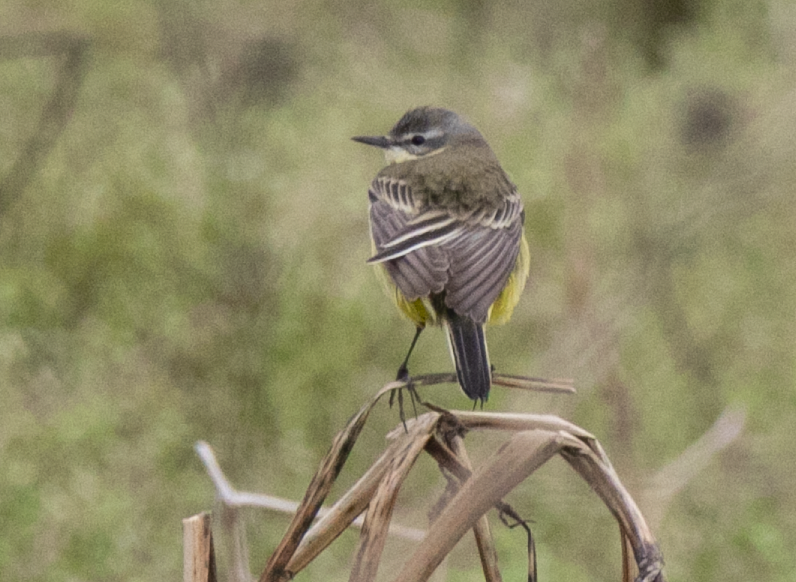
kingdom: Animalia
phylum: Chordata
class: Aves
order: Passeriformes
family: Motacillidae
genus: Motacilla
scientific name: Motacilla flava
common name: Western yellow wagtail
